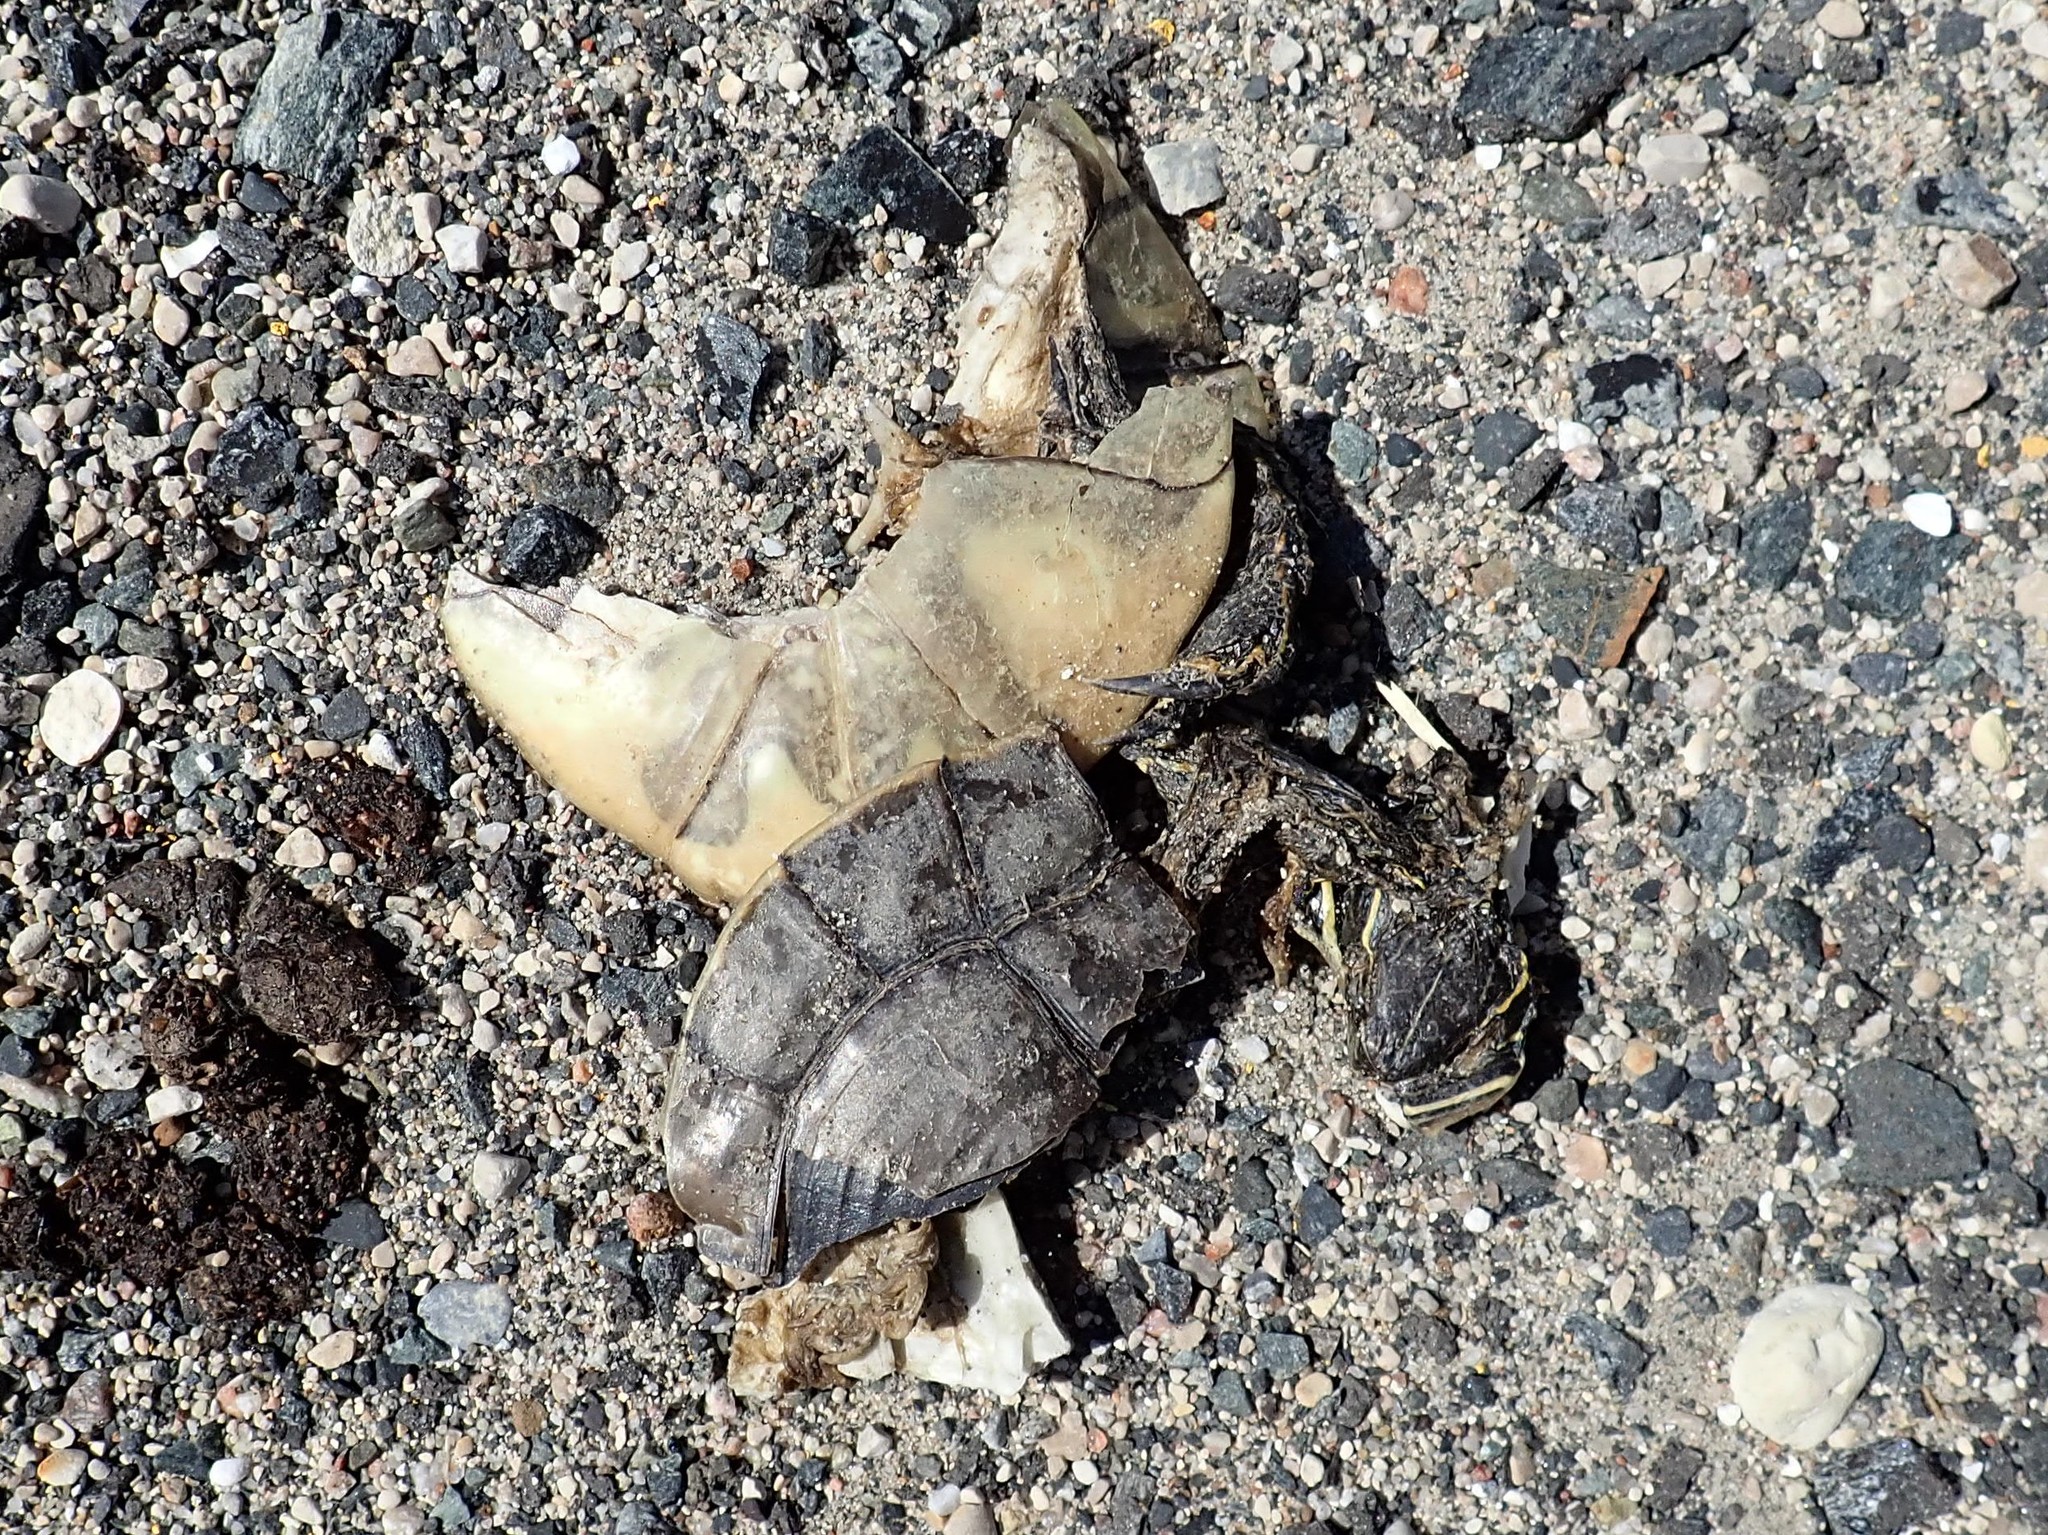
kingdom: Animalia
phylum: Chordata
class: Testudines
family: Emydidae
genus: Chrysemys
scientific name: Chrysemys picta
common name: Painted turtle
